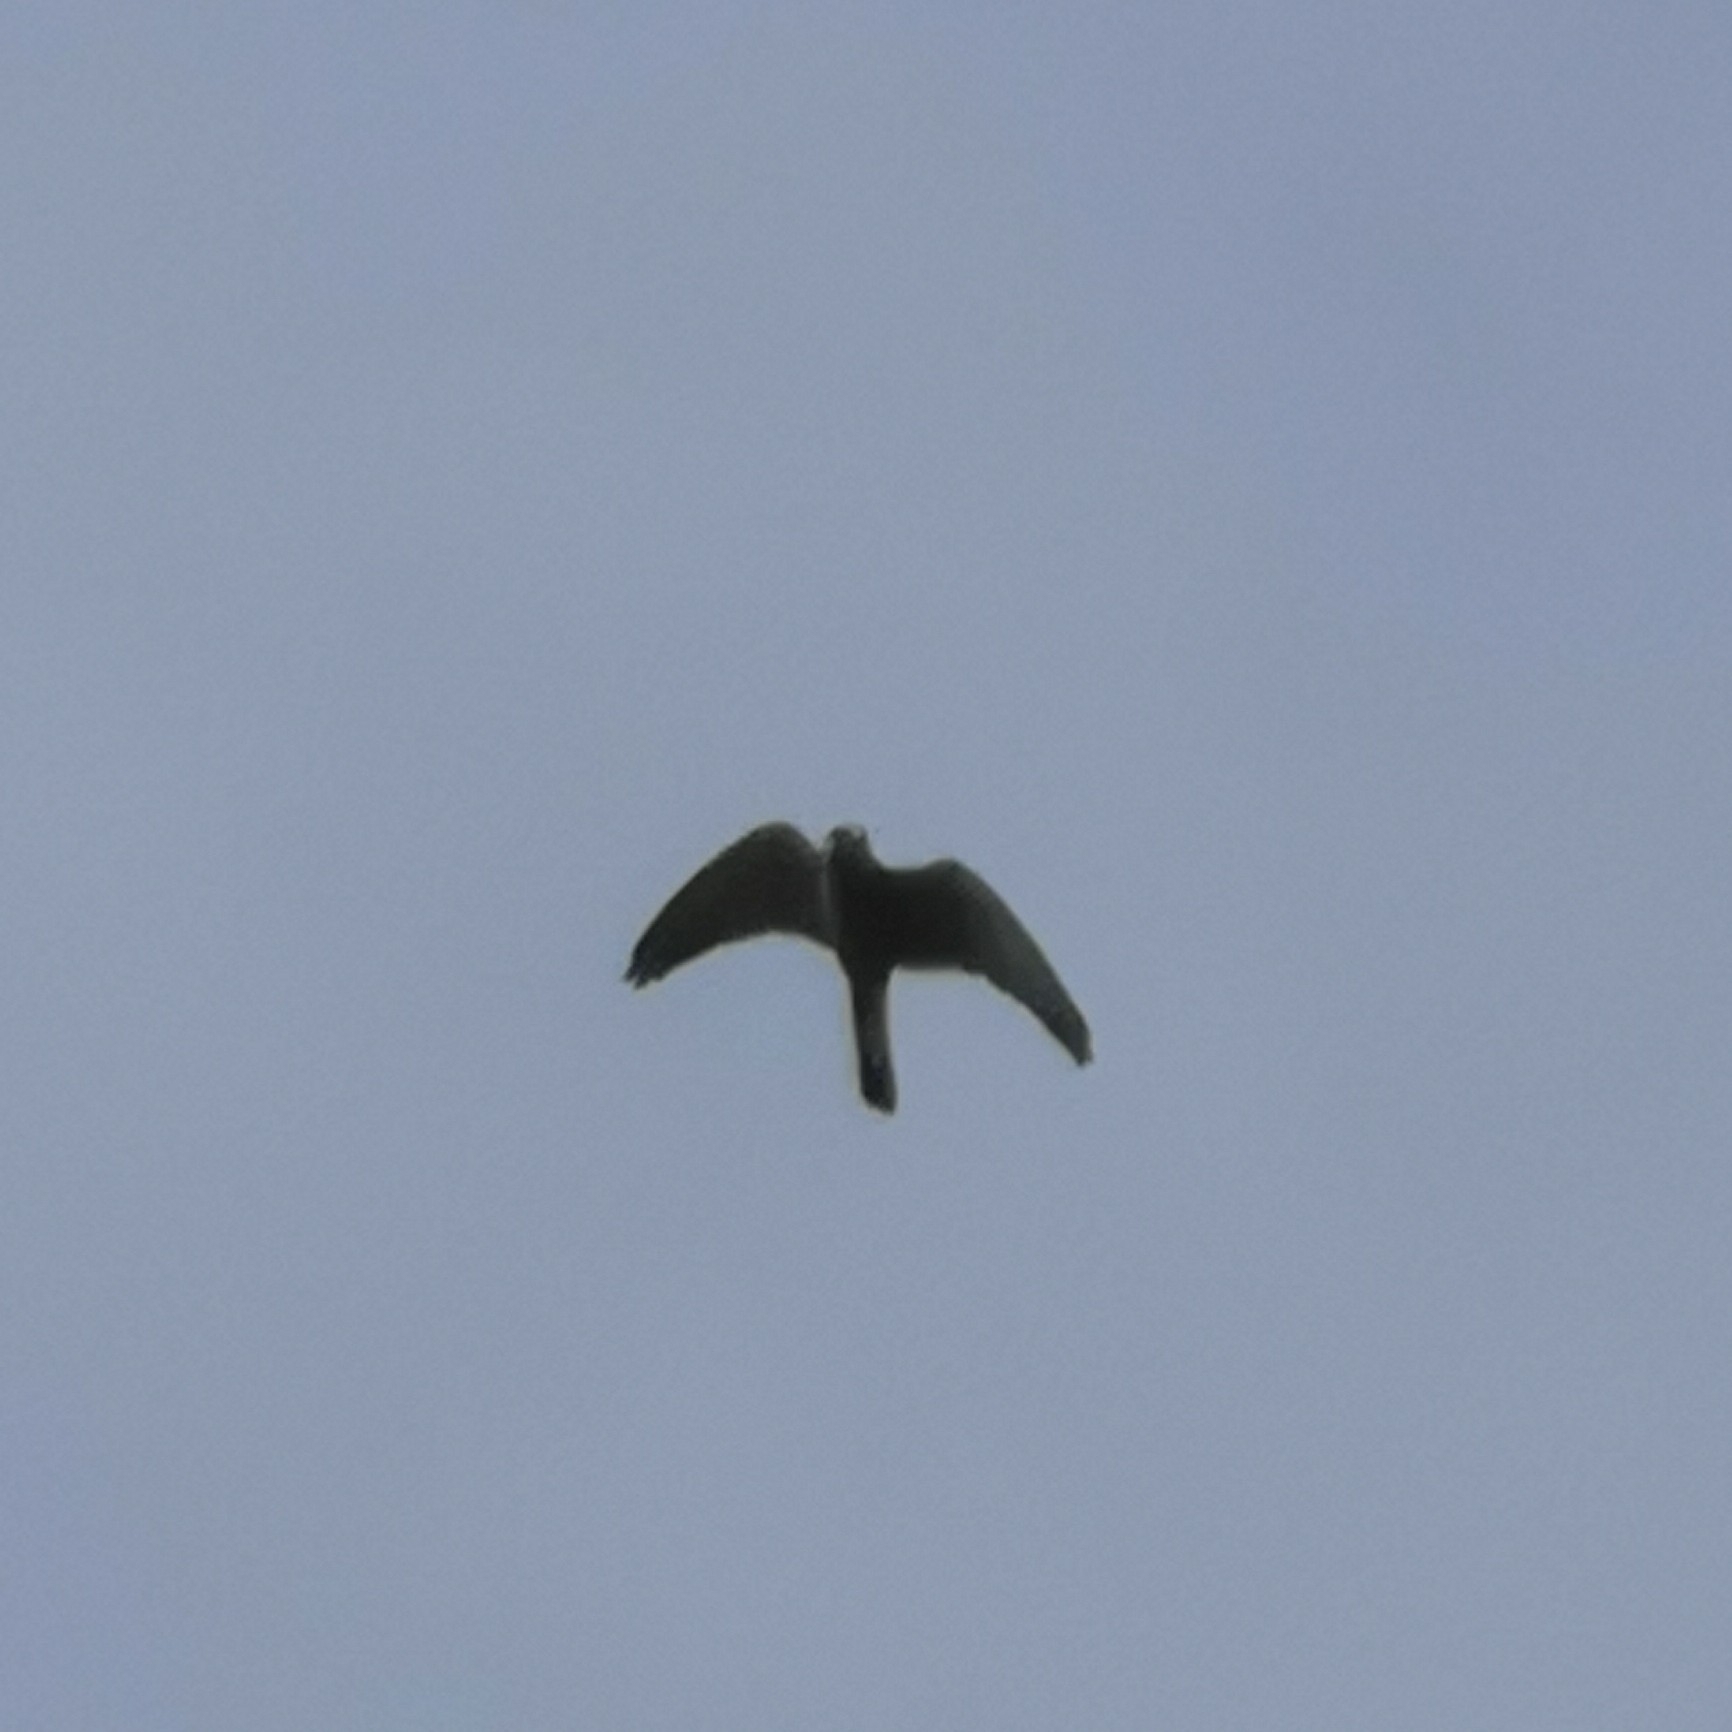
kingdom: Animalia
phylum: Chordata
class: Aves
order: Falconiformes
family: Falconidae
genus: Falco
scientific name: Falco tinnunculus
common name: Common kestrel
